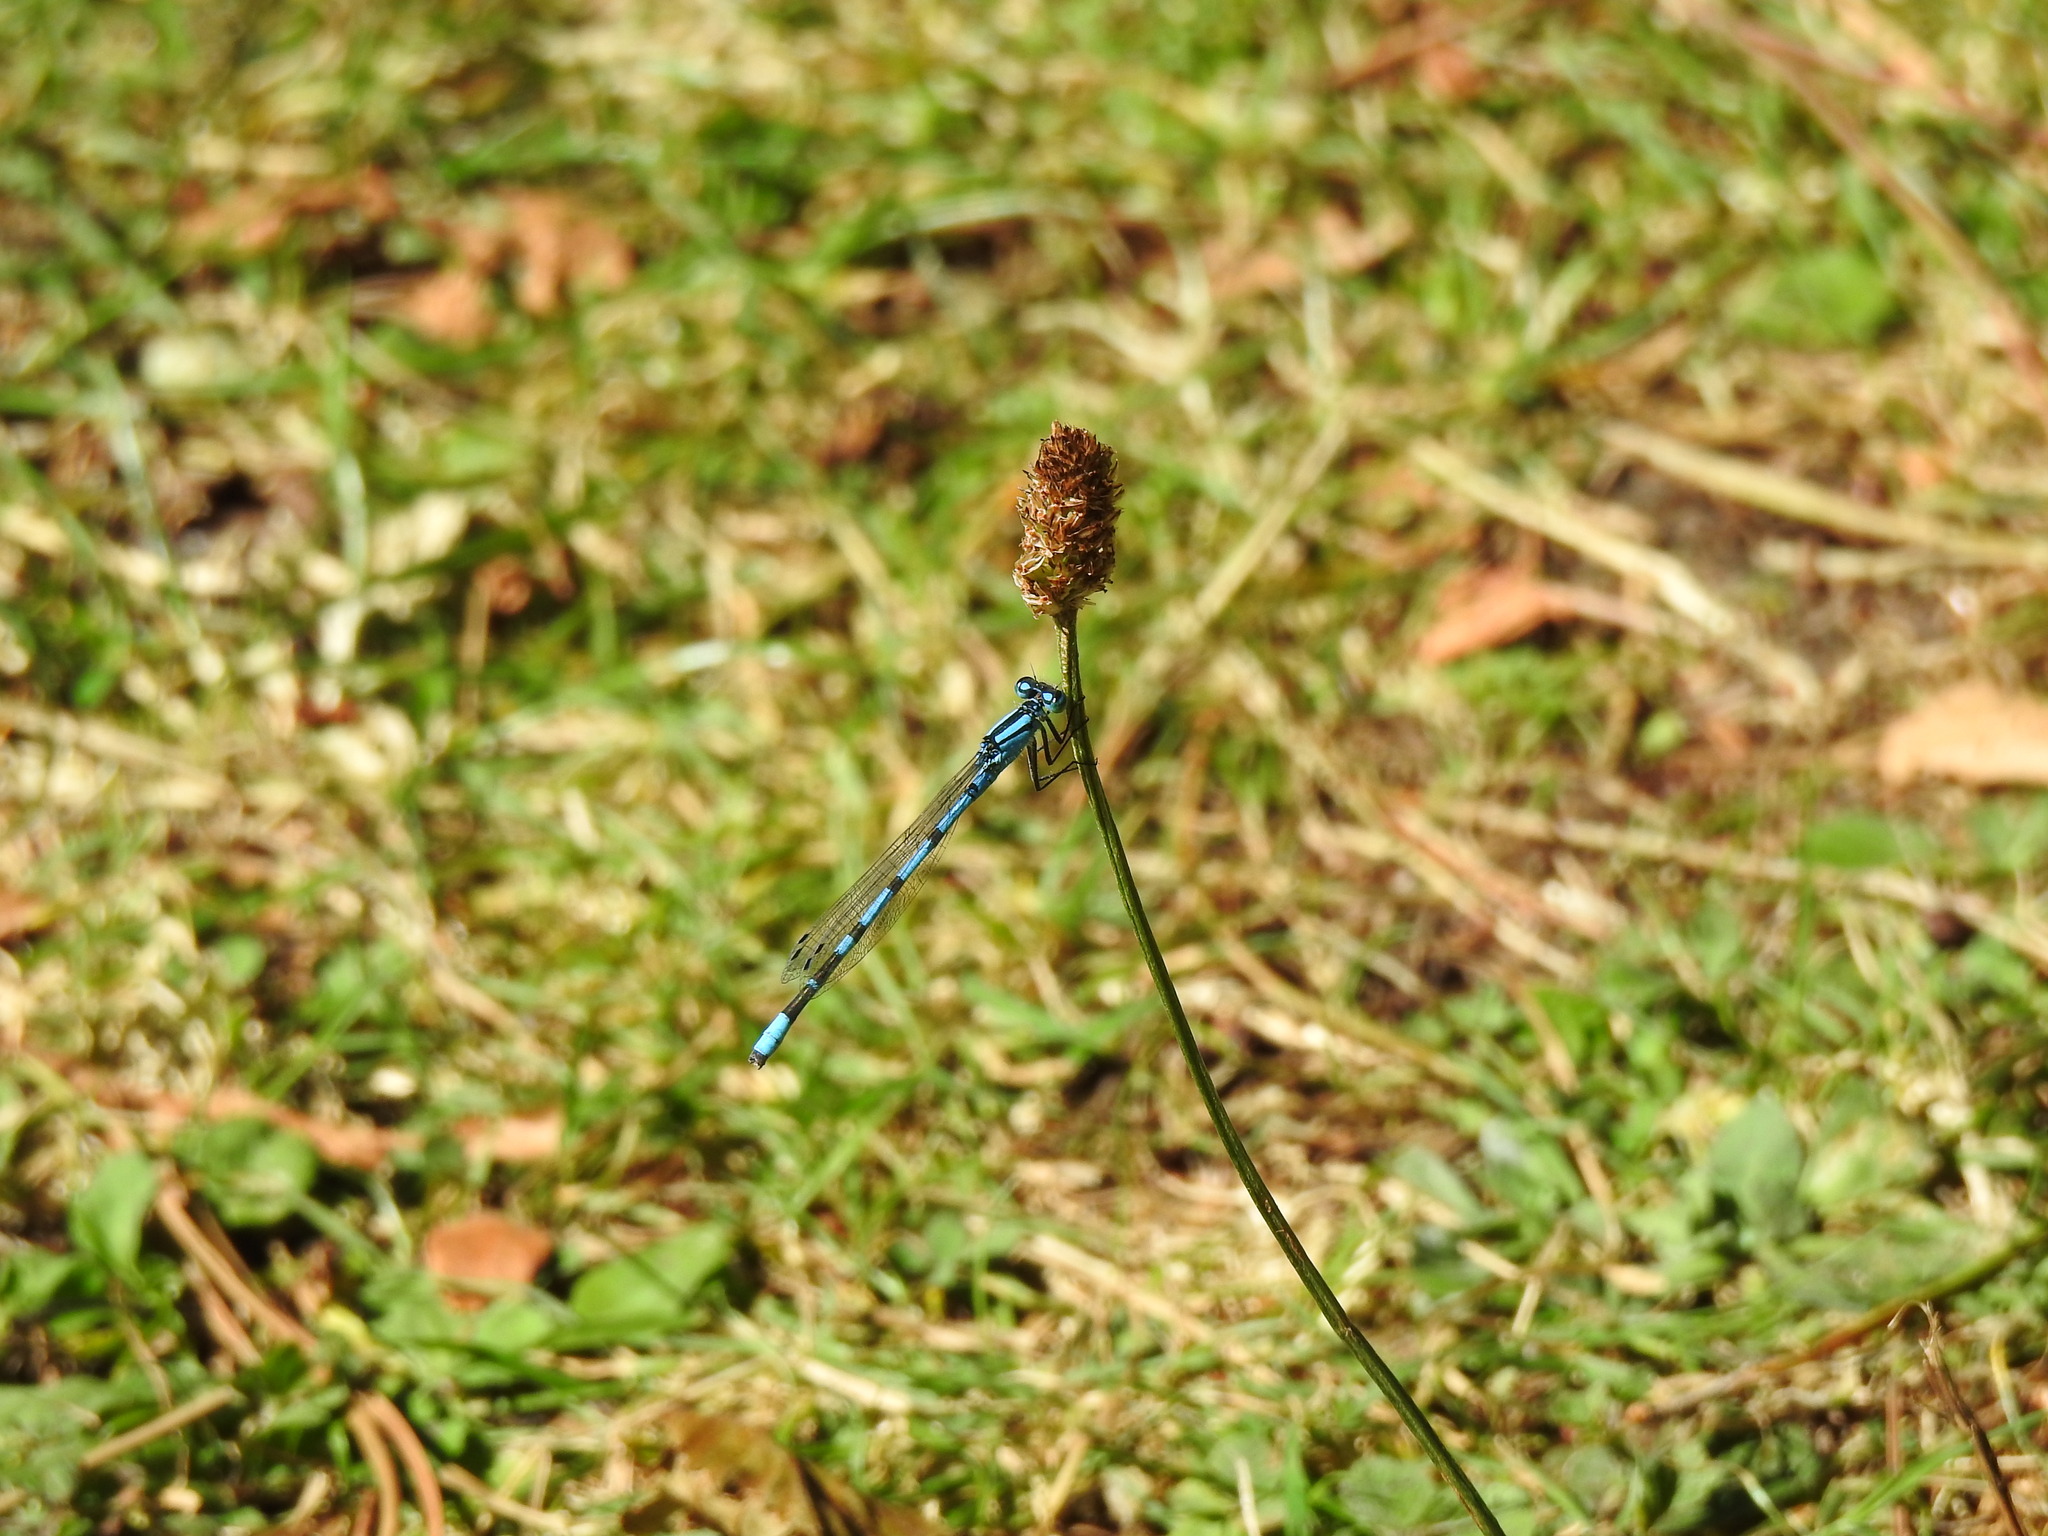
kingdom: Animalia
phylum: Arthropoda
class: Insecta
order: Odonata
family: Coenagrionidae
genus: Enallagma
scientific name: Enallagma cyathigerum
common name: Common blue damselfly
